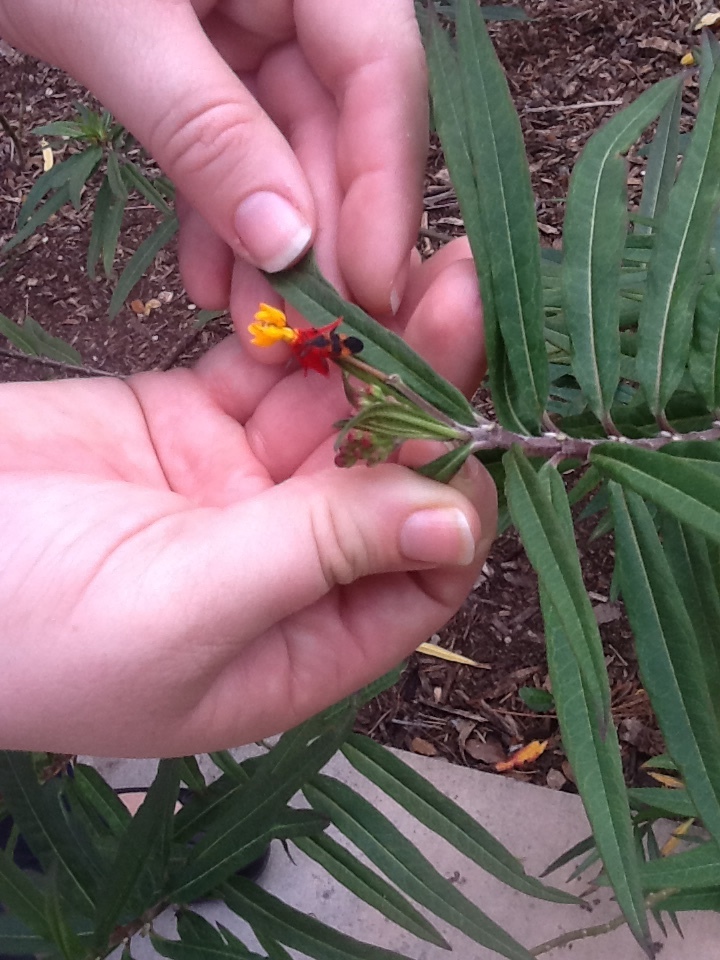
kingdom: Animalia
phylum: Arthropoda
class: Insecta
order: Hemiptera
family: Lygaeidae
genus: Oncopeltus
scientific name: Oncopeltus fasciatus
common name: Large milkweed bug
